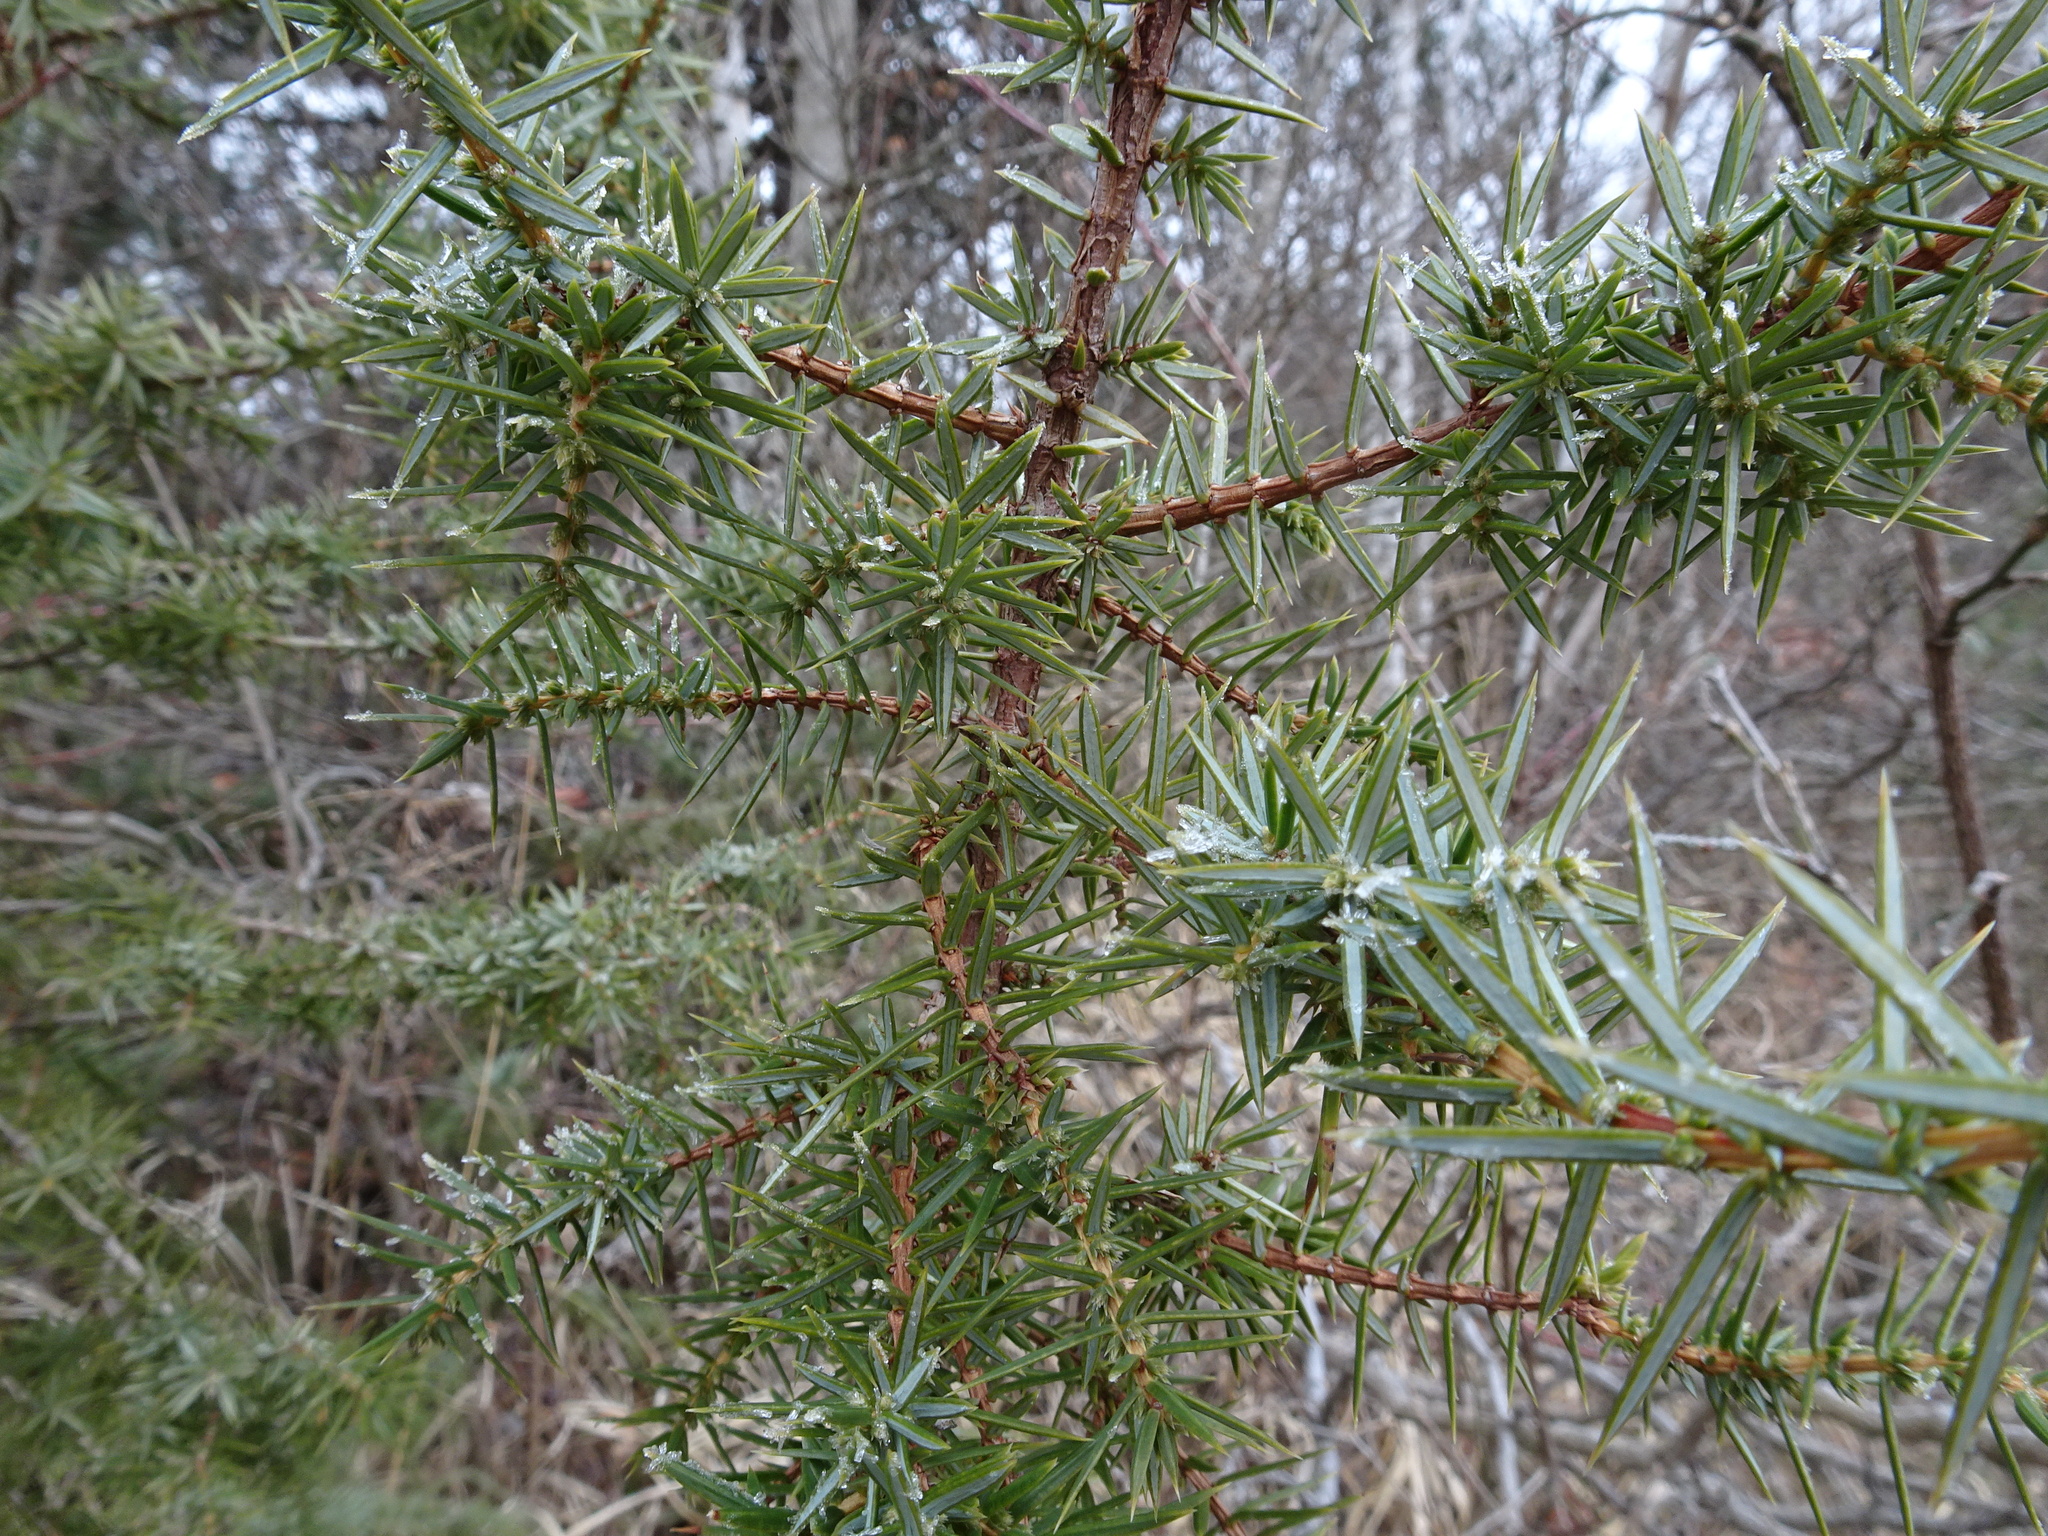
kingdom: Plantae
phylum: Tracheophyta
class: Pinopsida
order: Pinales
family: Cupressaceae
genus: Juniperus
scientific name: Juniperus communis
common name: Common juniper
